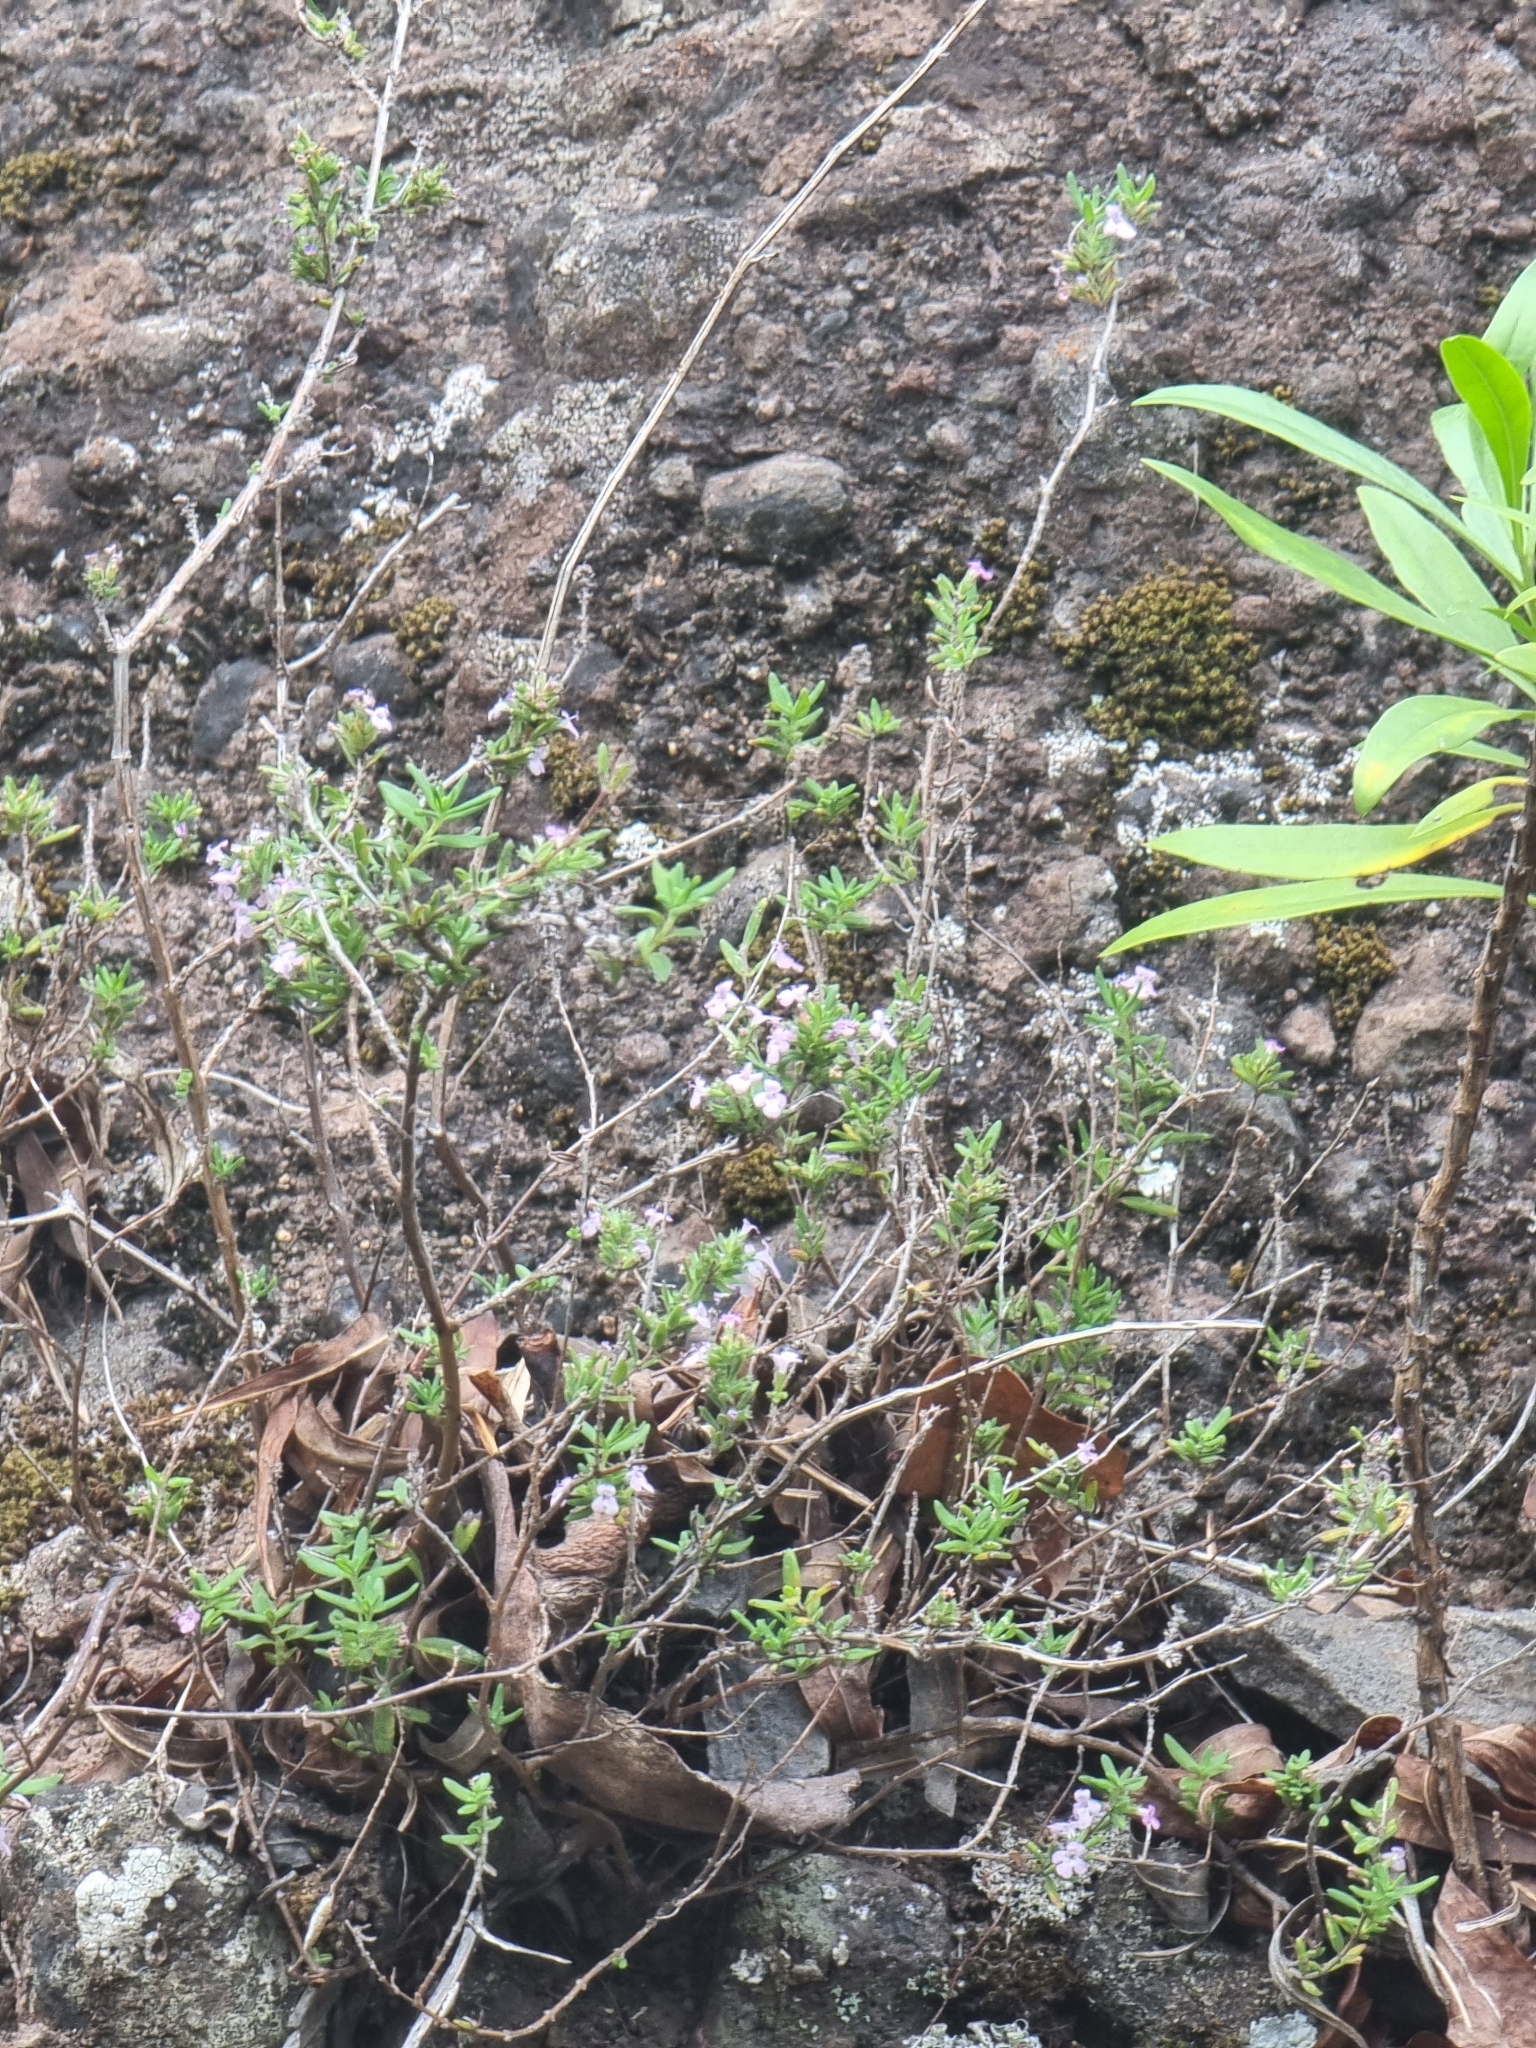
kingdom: Plantae
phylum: Tracheophyta
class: Magnoliopsida
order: Lamiales
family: Lamiaceae
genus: Micromeria
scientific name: Micromeria maderensis
